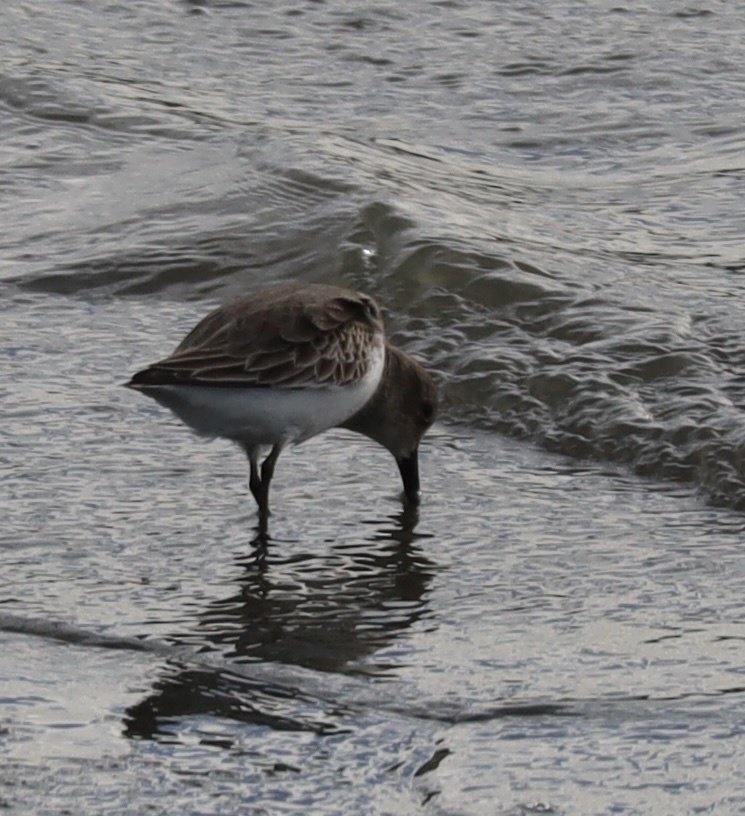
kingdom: Animalia
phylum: Chordata
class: Aves
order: Charadriiformes
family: Scolopacidae
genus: Calidris
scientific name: Calidris alpina
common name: Dunlin
